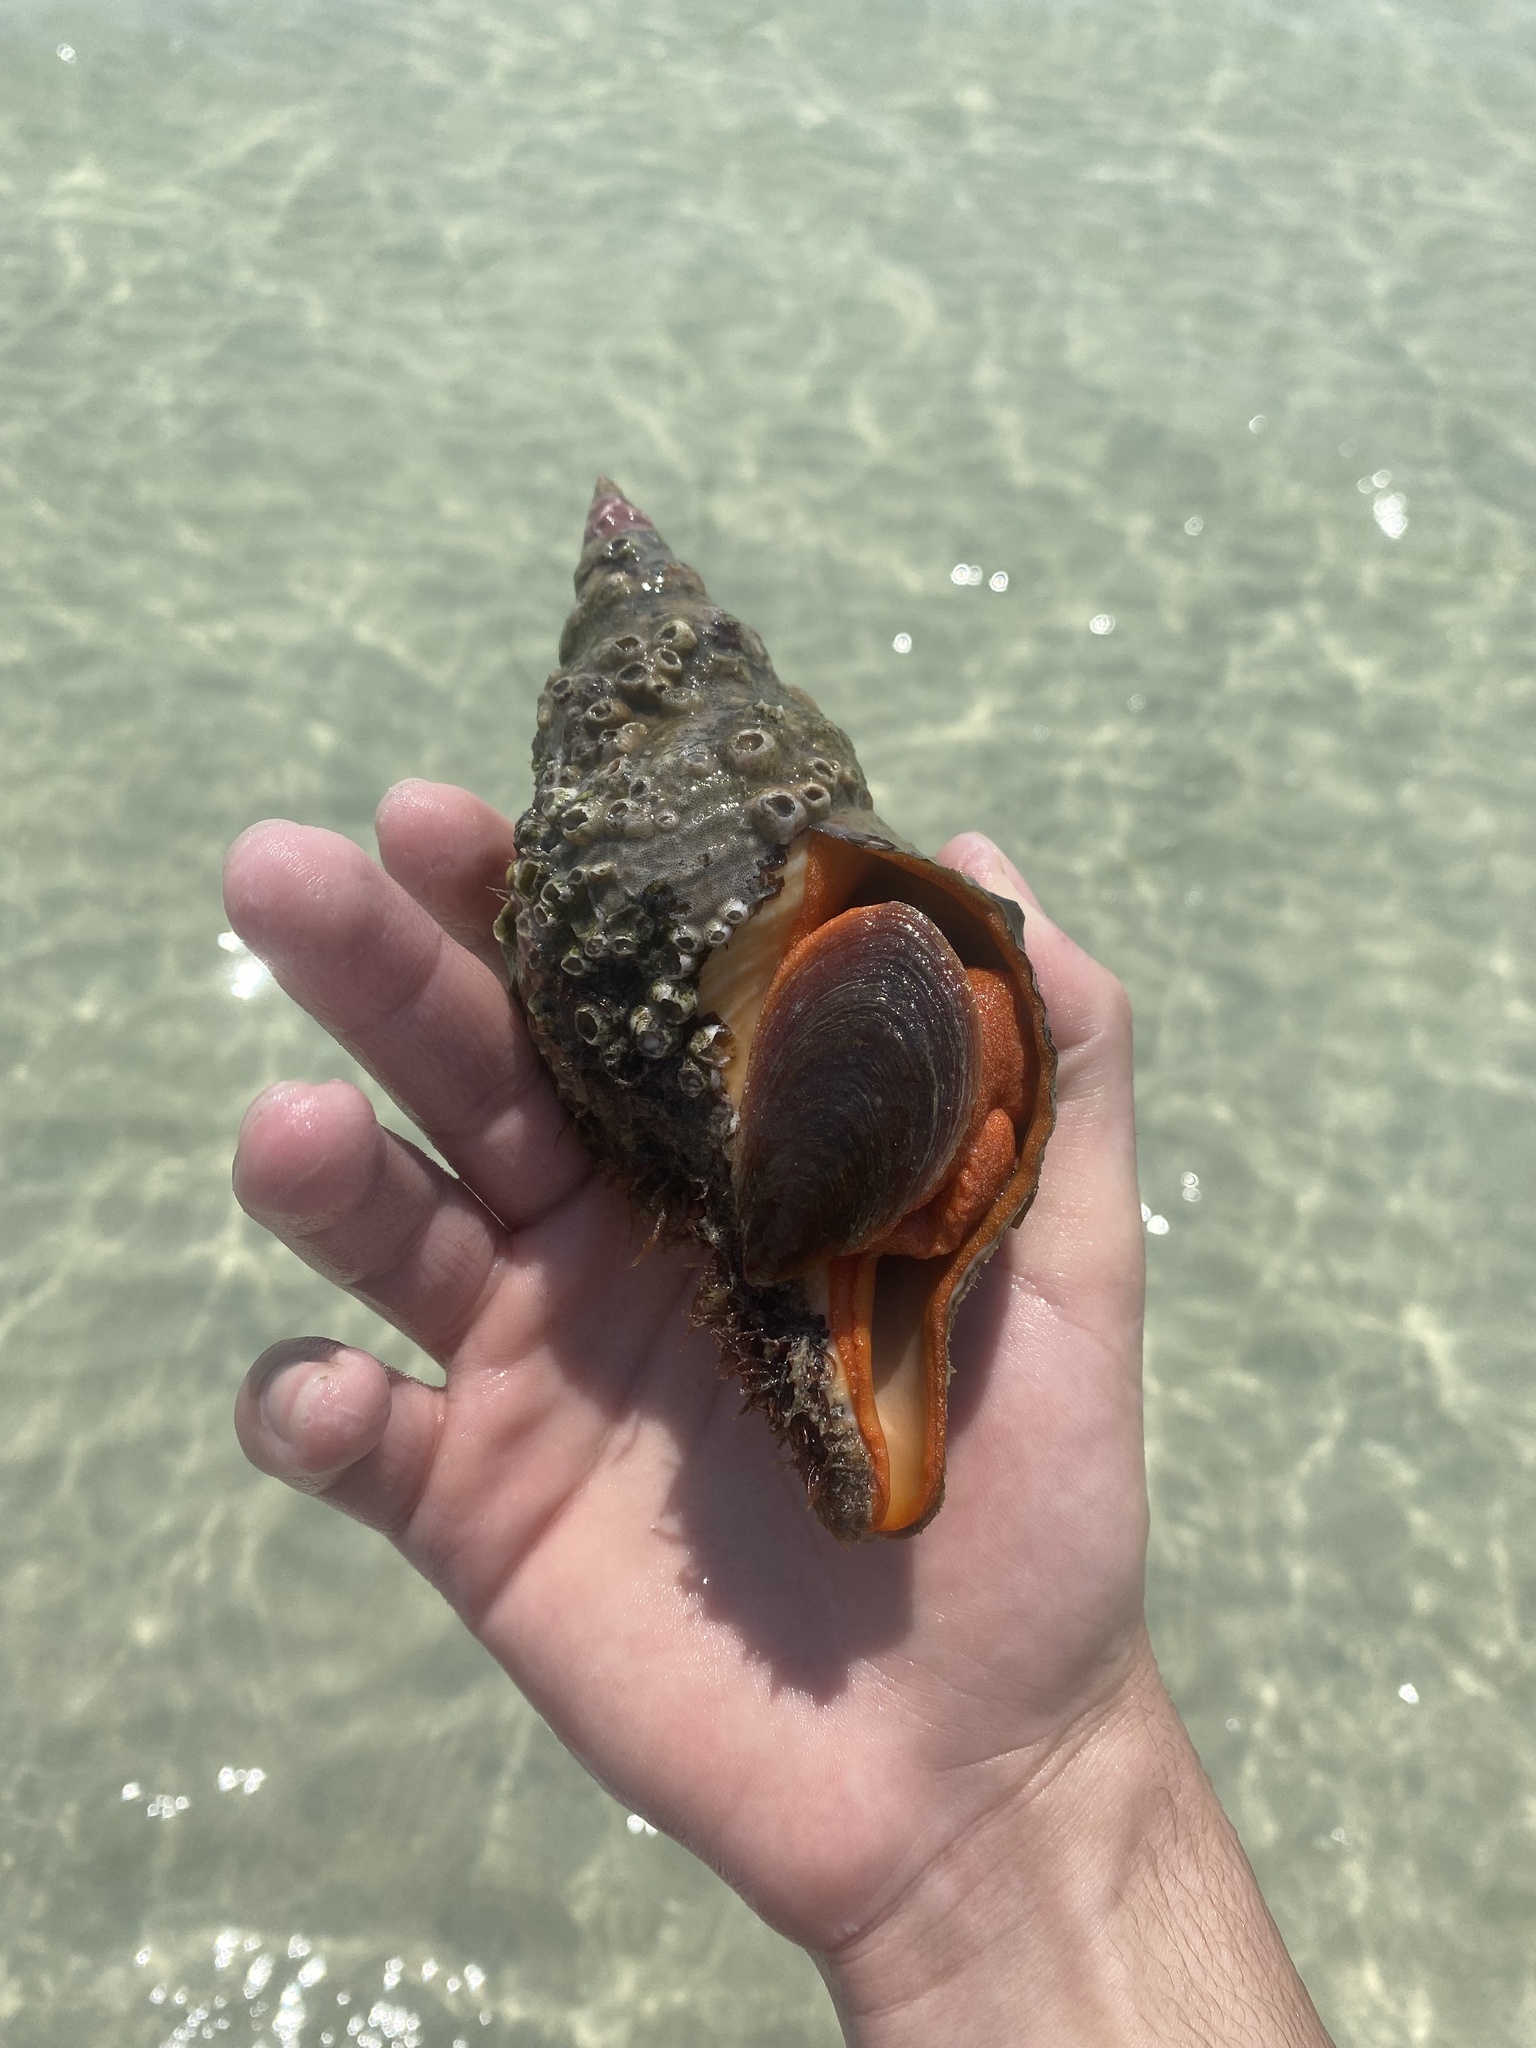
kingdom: Animalia
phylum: Mollusca
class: Gastropoda
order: Neogastropoda
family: Fasciolariidae
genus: Triplofusus
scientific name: Triplofusus giganteus
